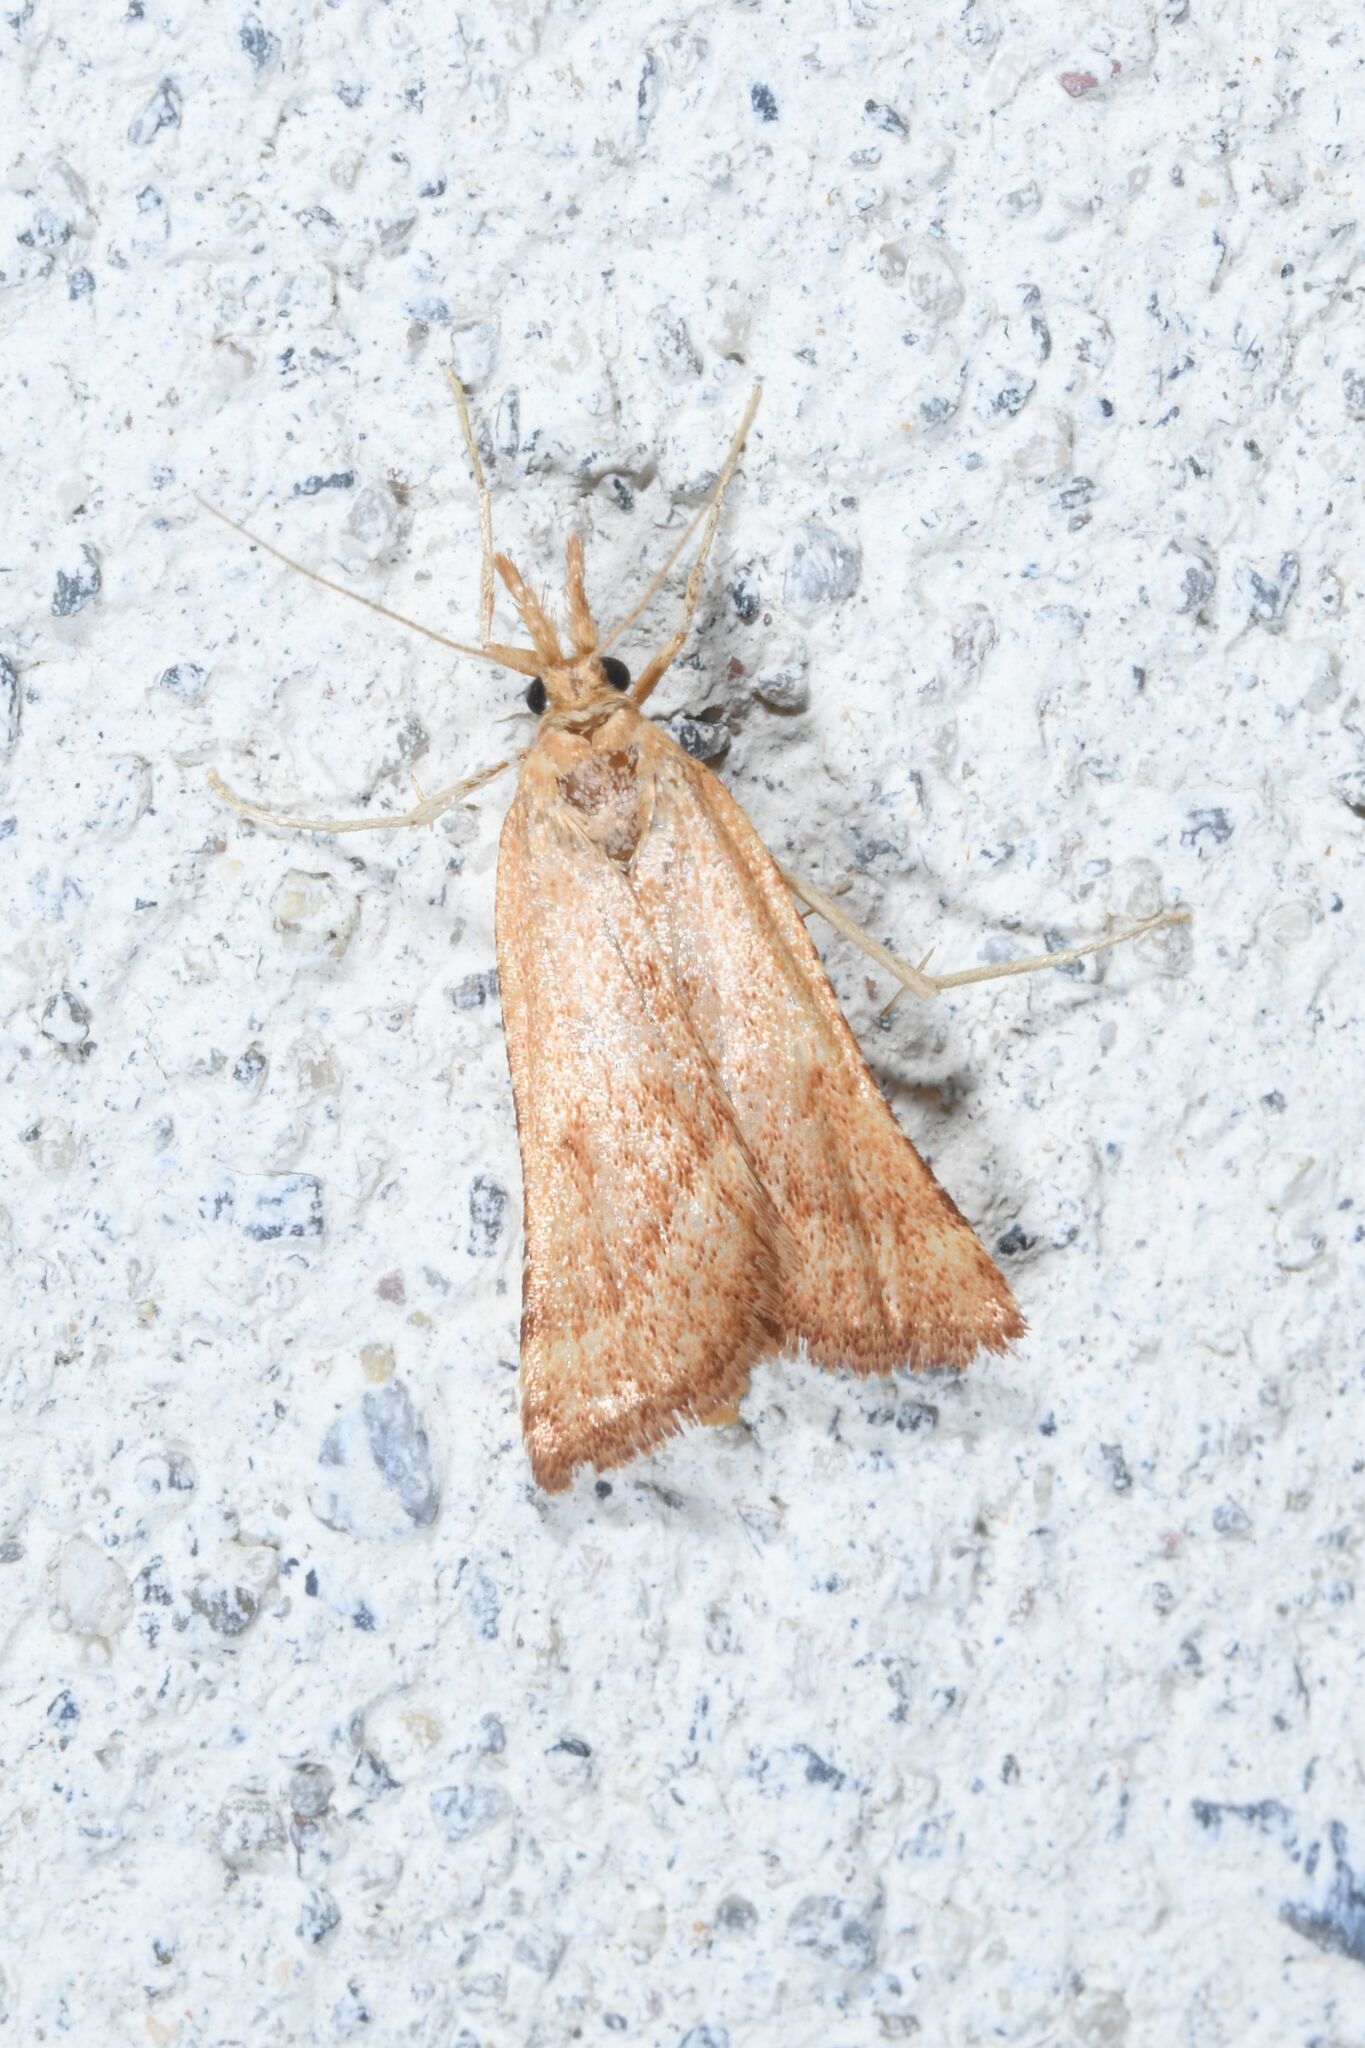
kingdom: Animalia
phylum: Arthropoda
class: Insecta
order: Lepidoptera
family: Pyralidae
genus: Synaphe
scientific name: Synaphe punctalis
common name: Long-legged tabby
